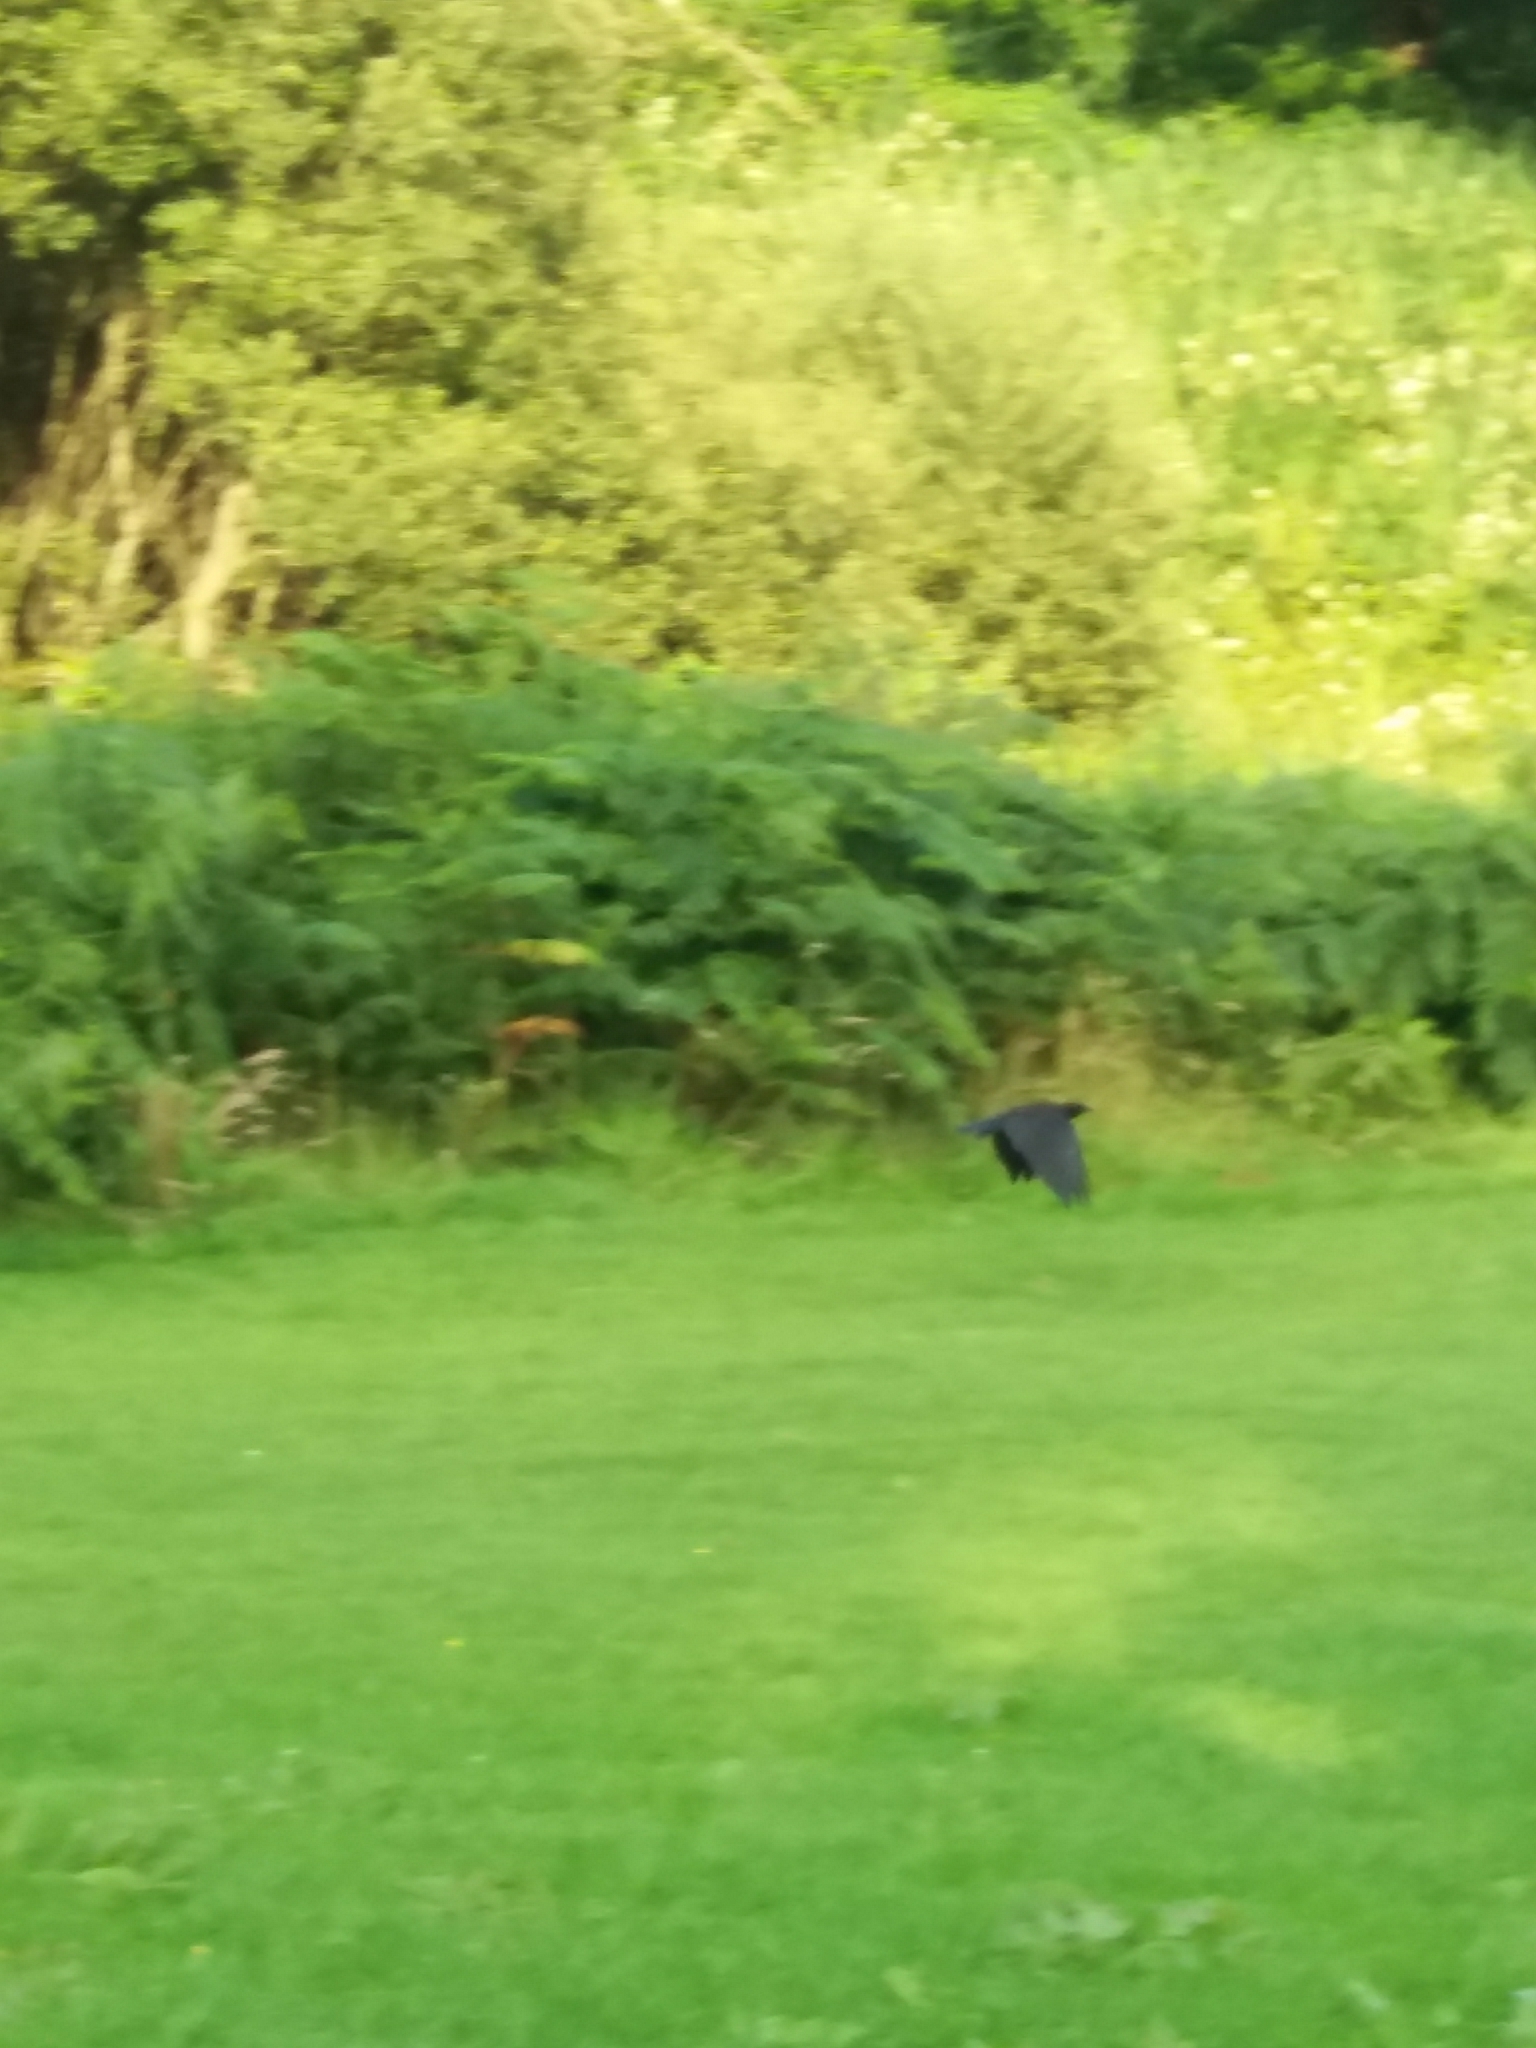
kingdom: Animalia
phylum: Chordata
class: Aves
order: Passeriformes
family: Corvidae
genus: Corvus
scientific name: Corvus corone
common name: Carrion crow
